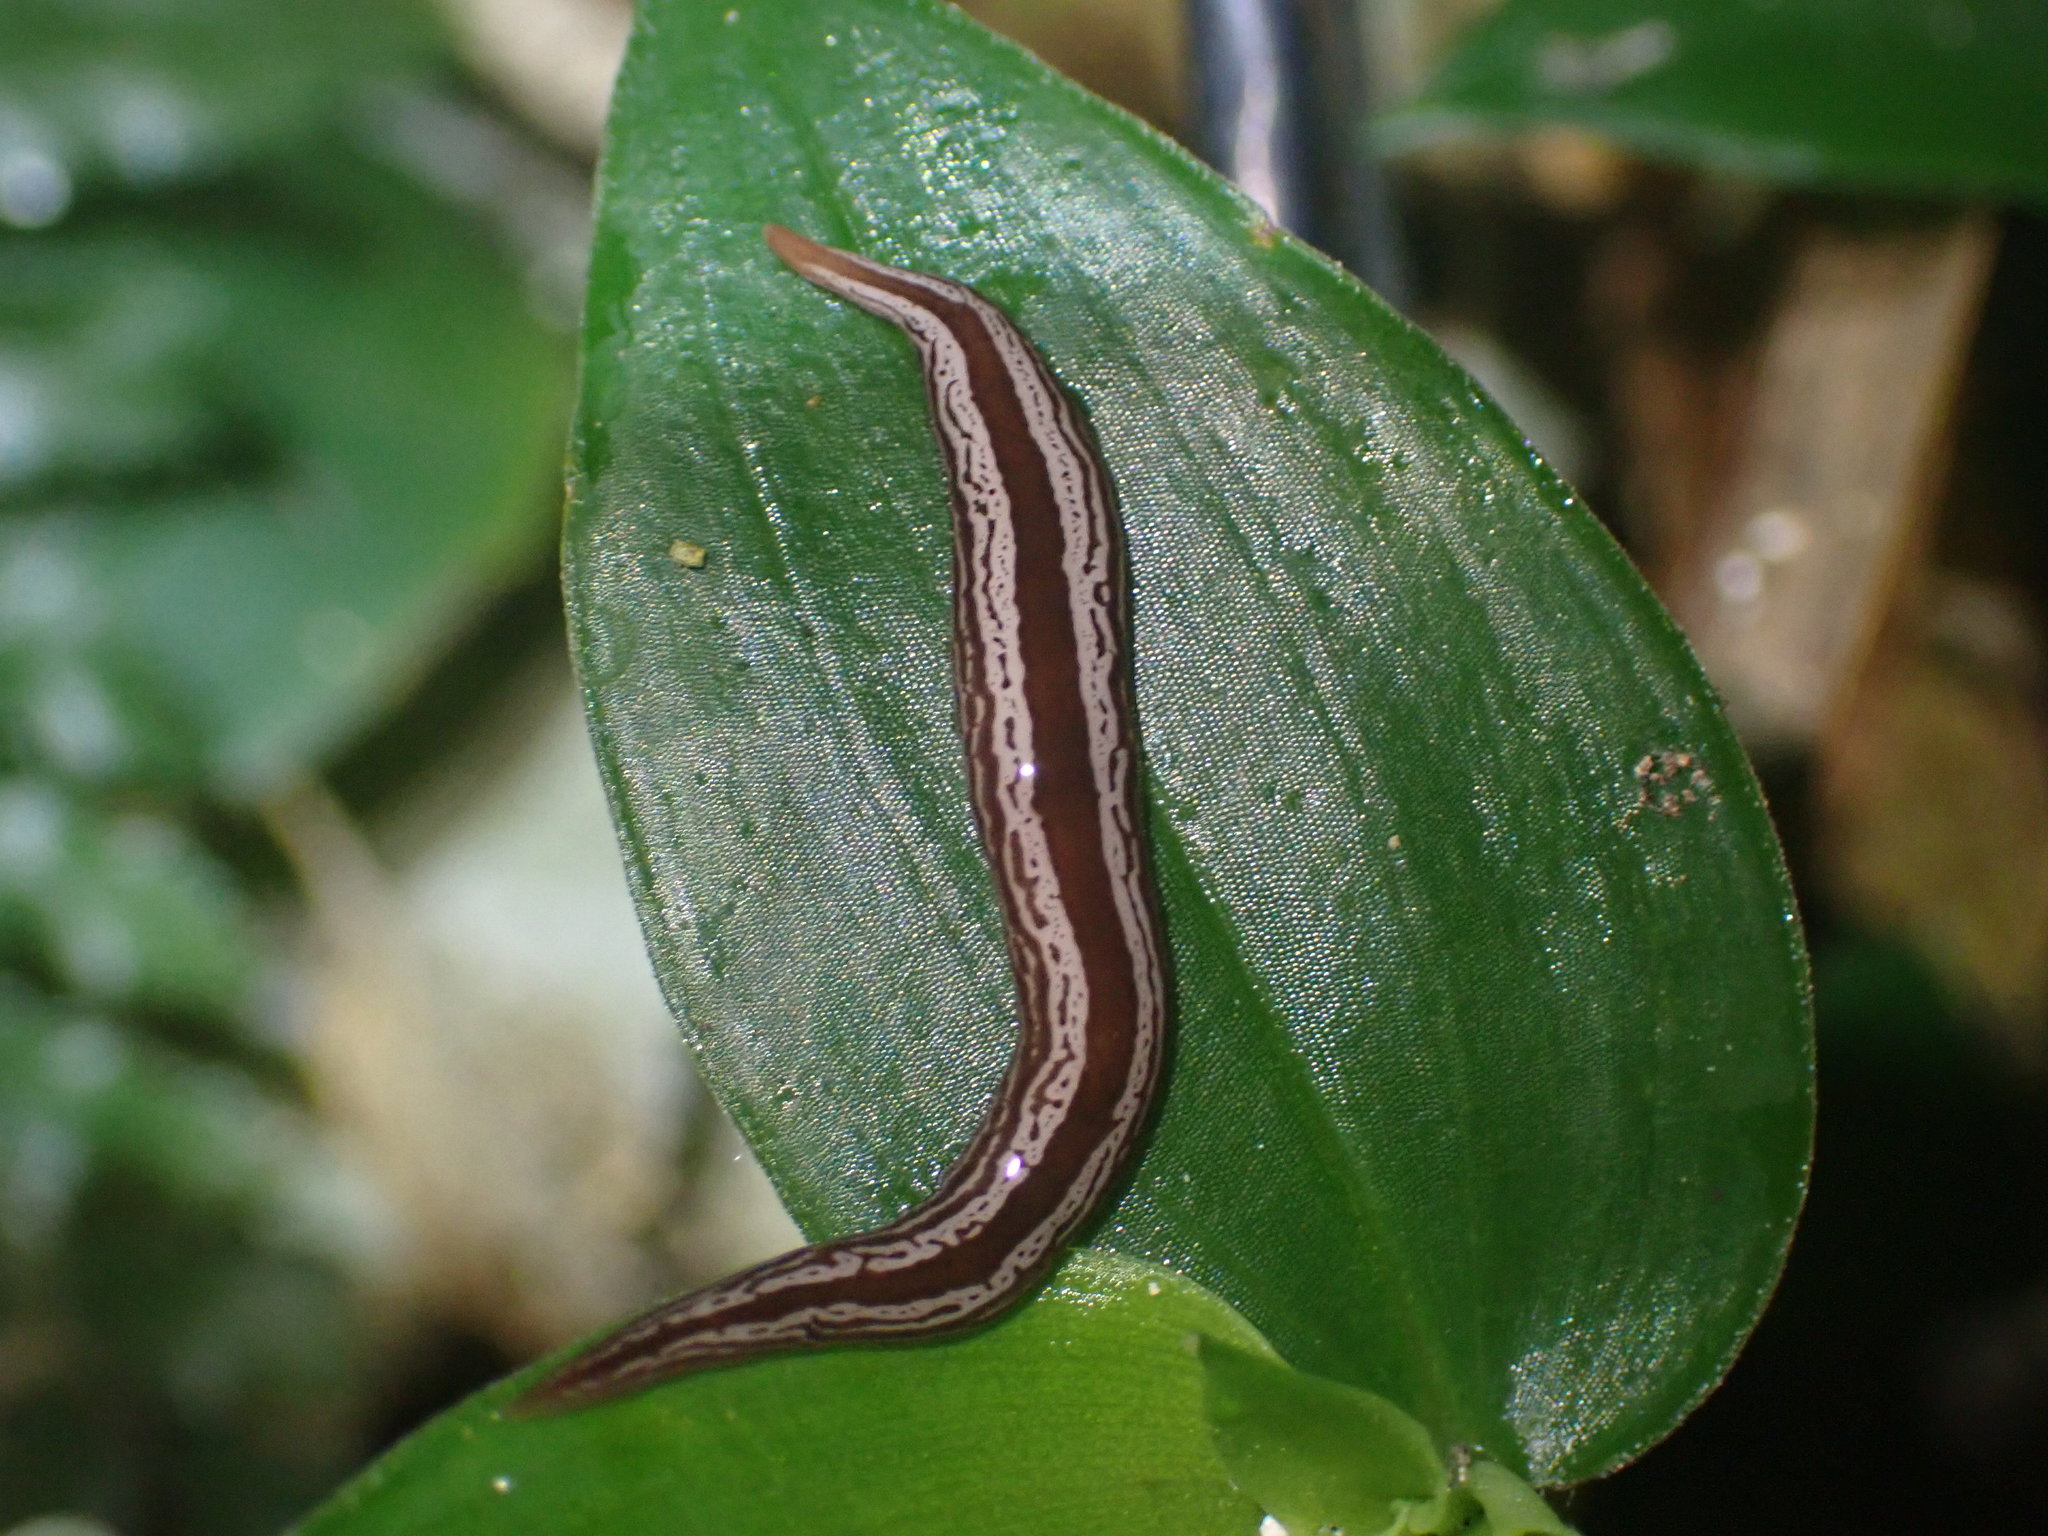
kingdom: Animalia
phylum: Platyhelminthes
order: Tricladida
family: Geoplanidae
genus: Artioposthia
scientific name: Artioposthia exulans
